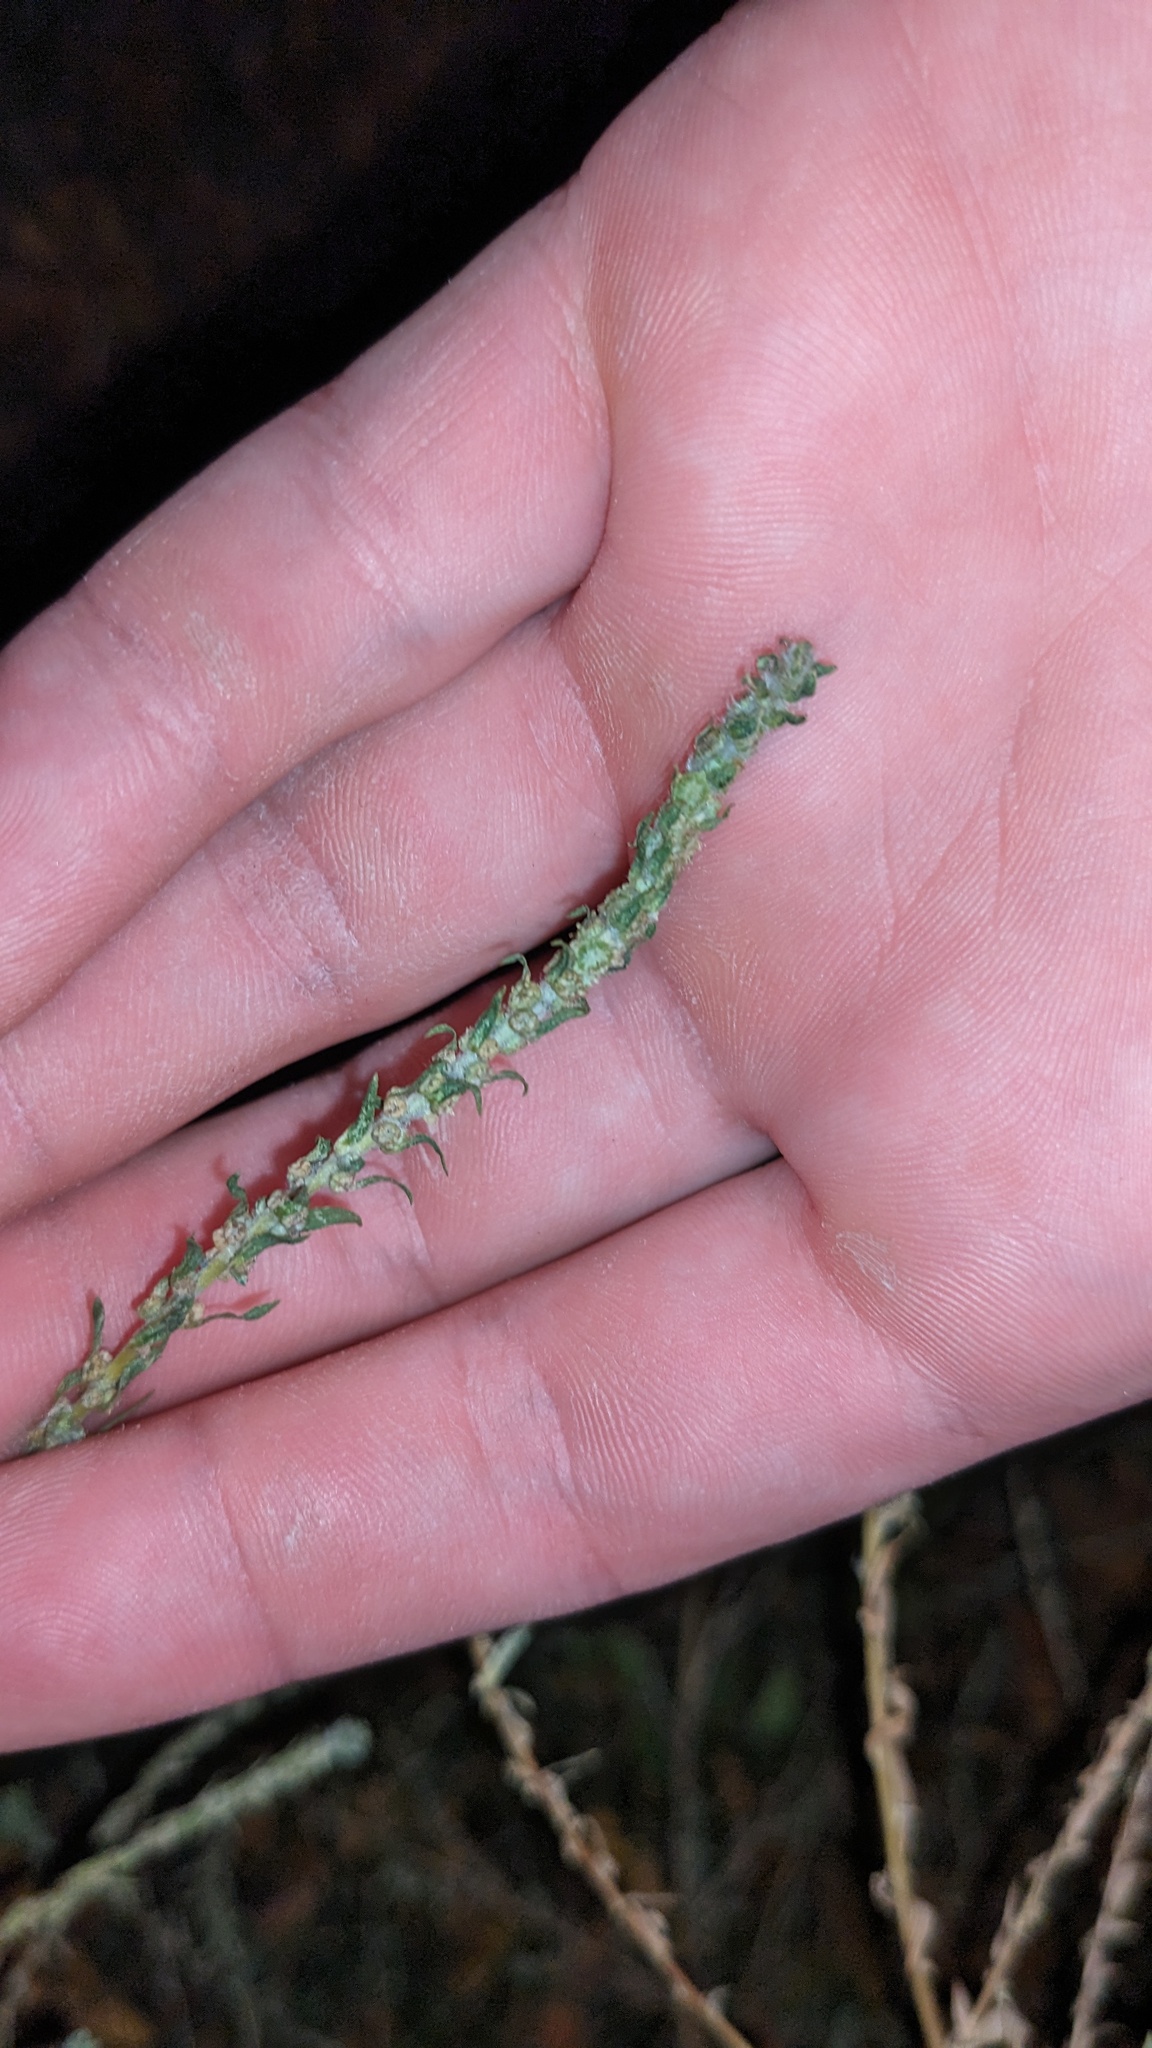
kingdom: Plantae
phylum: Tracheophyta
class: Magnoliopsida
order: Caryophyllales
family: Amaranthaceae
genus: Bassia
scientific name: Bassia scoparia
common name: Belvedere
